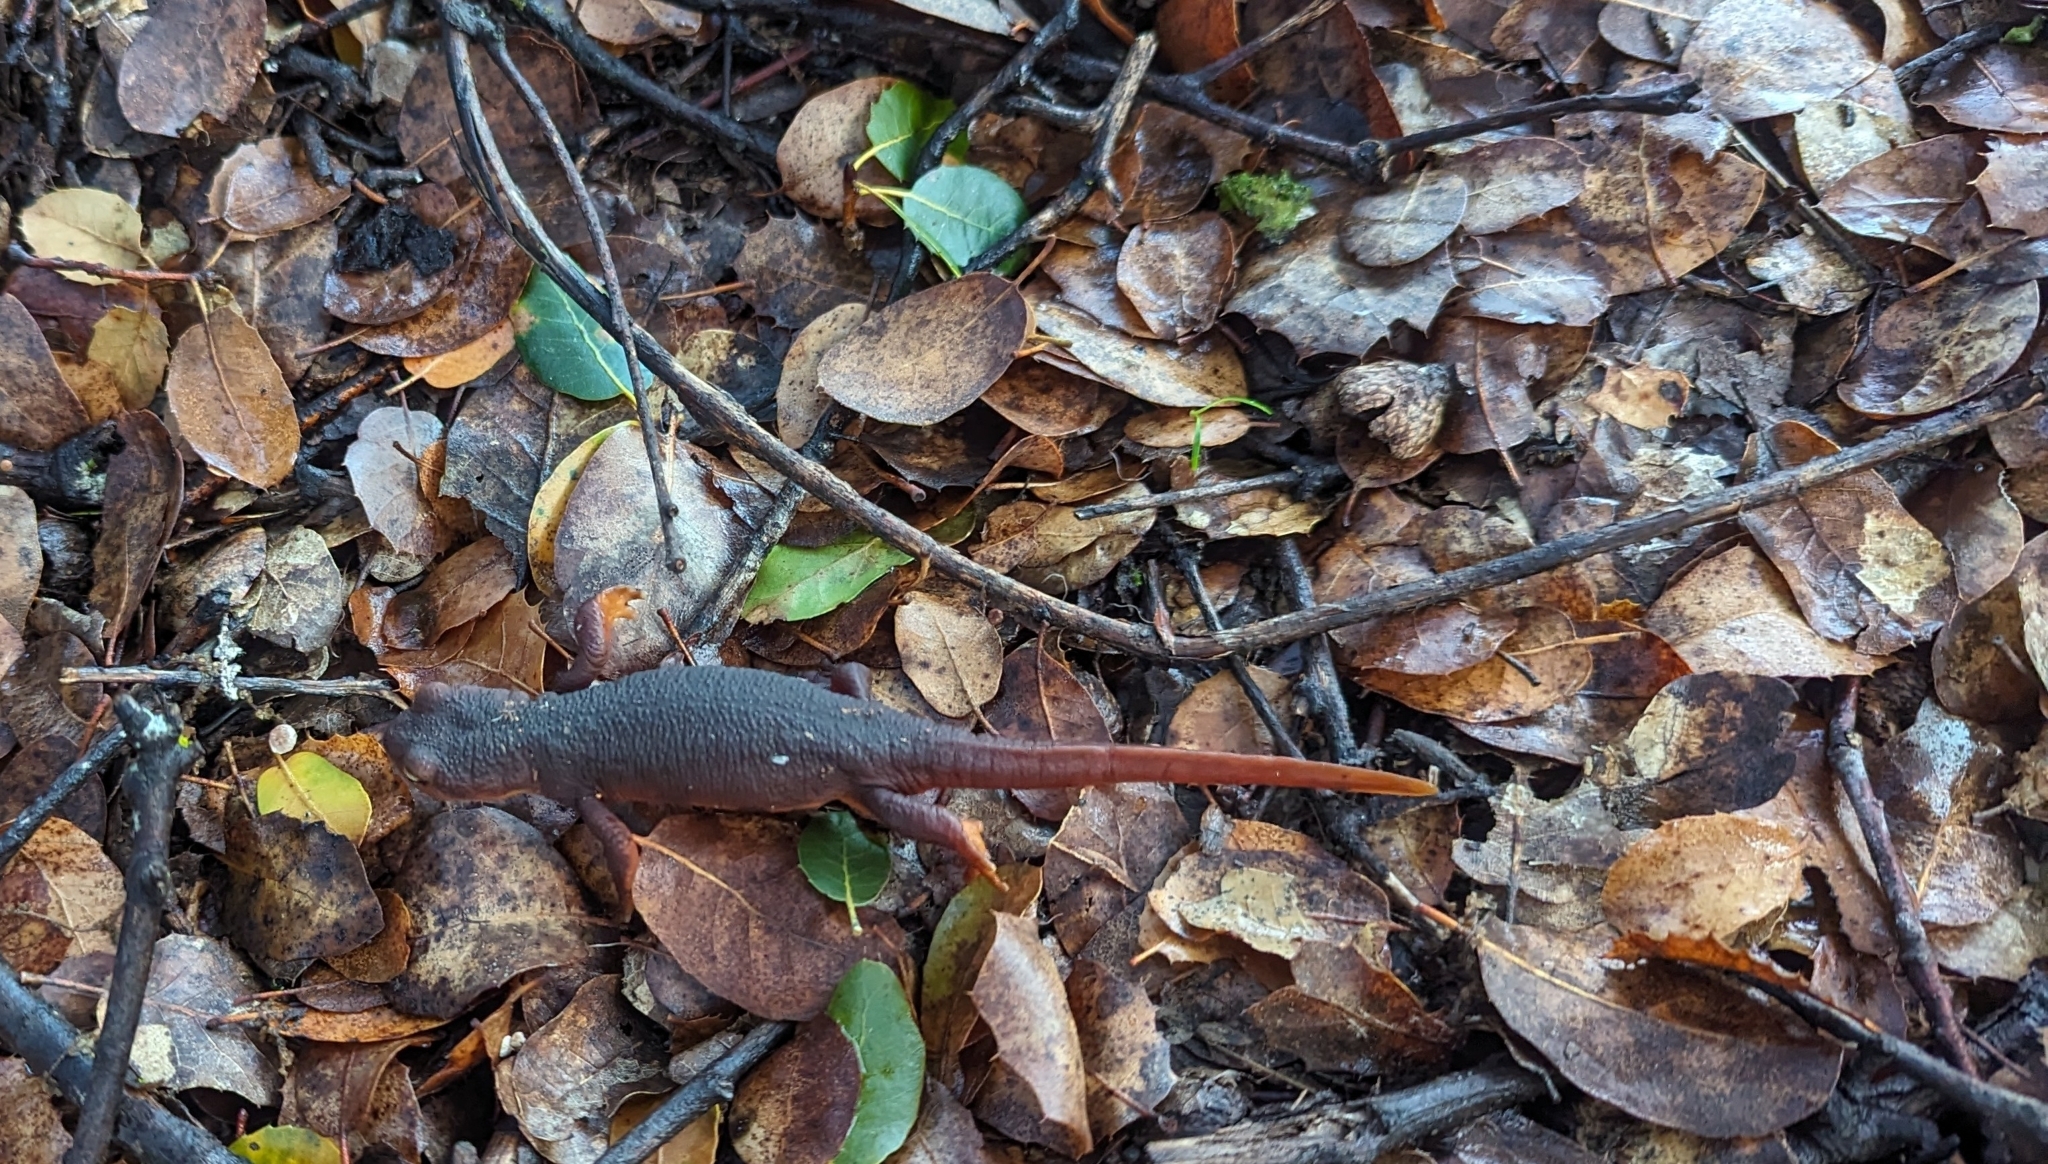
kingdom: Animalia
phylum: Chordata
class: Amphibia
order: Caudata
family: Salamandridae
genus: Taricha
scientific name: Taricha sierrae
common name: Sierra newt
